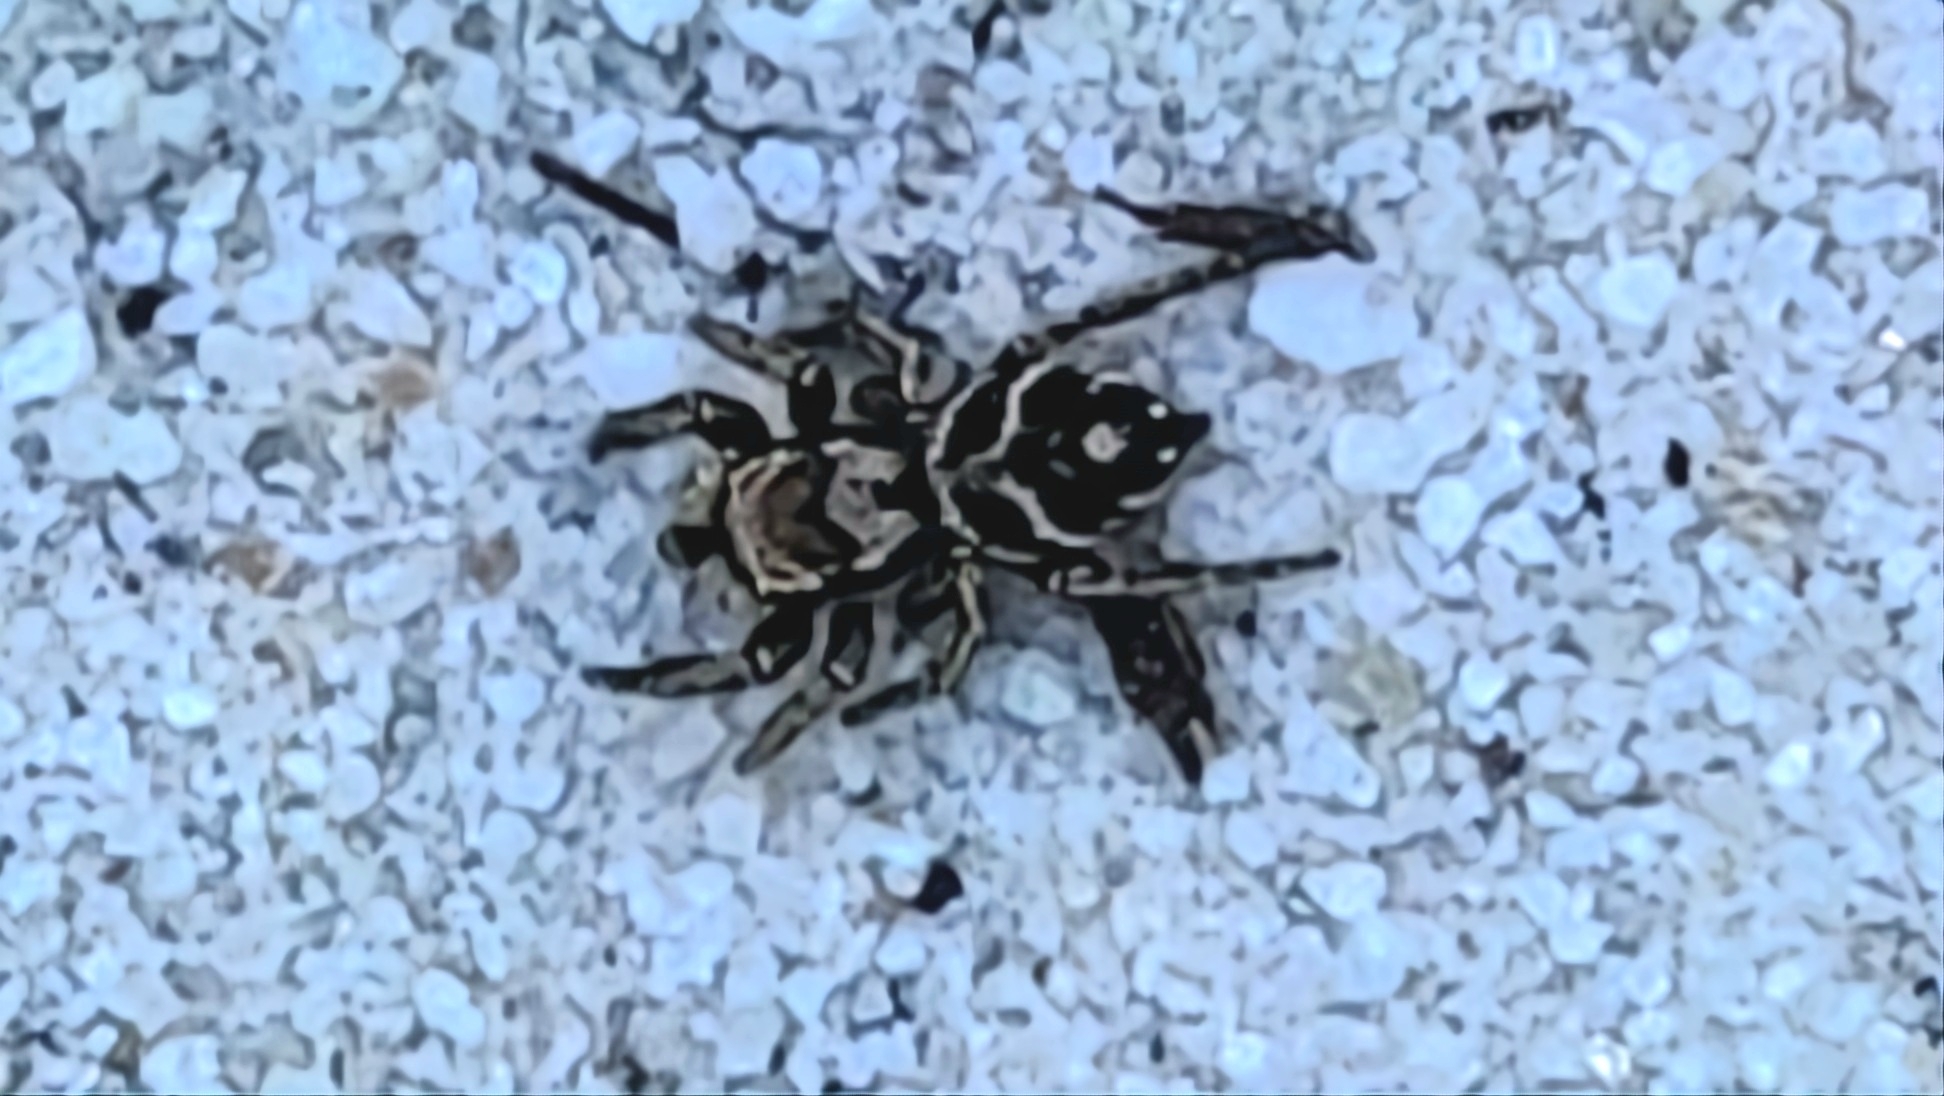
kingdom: Animalia
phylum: Arthropoda
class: Arachnida
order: Araneae
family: Salticidae
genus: Habronattus
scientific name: Habronattus coecatus
